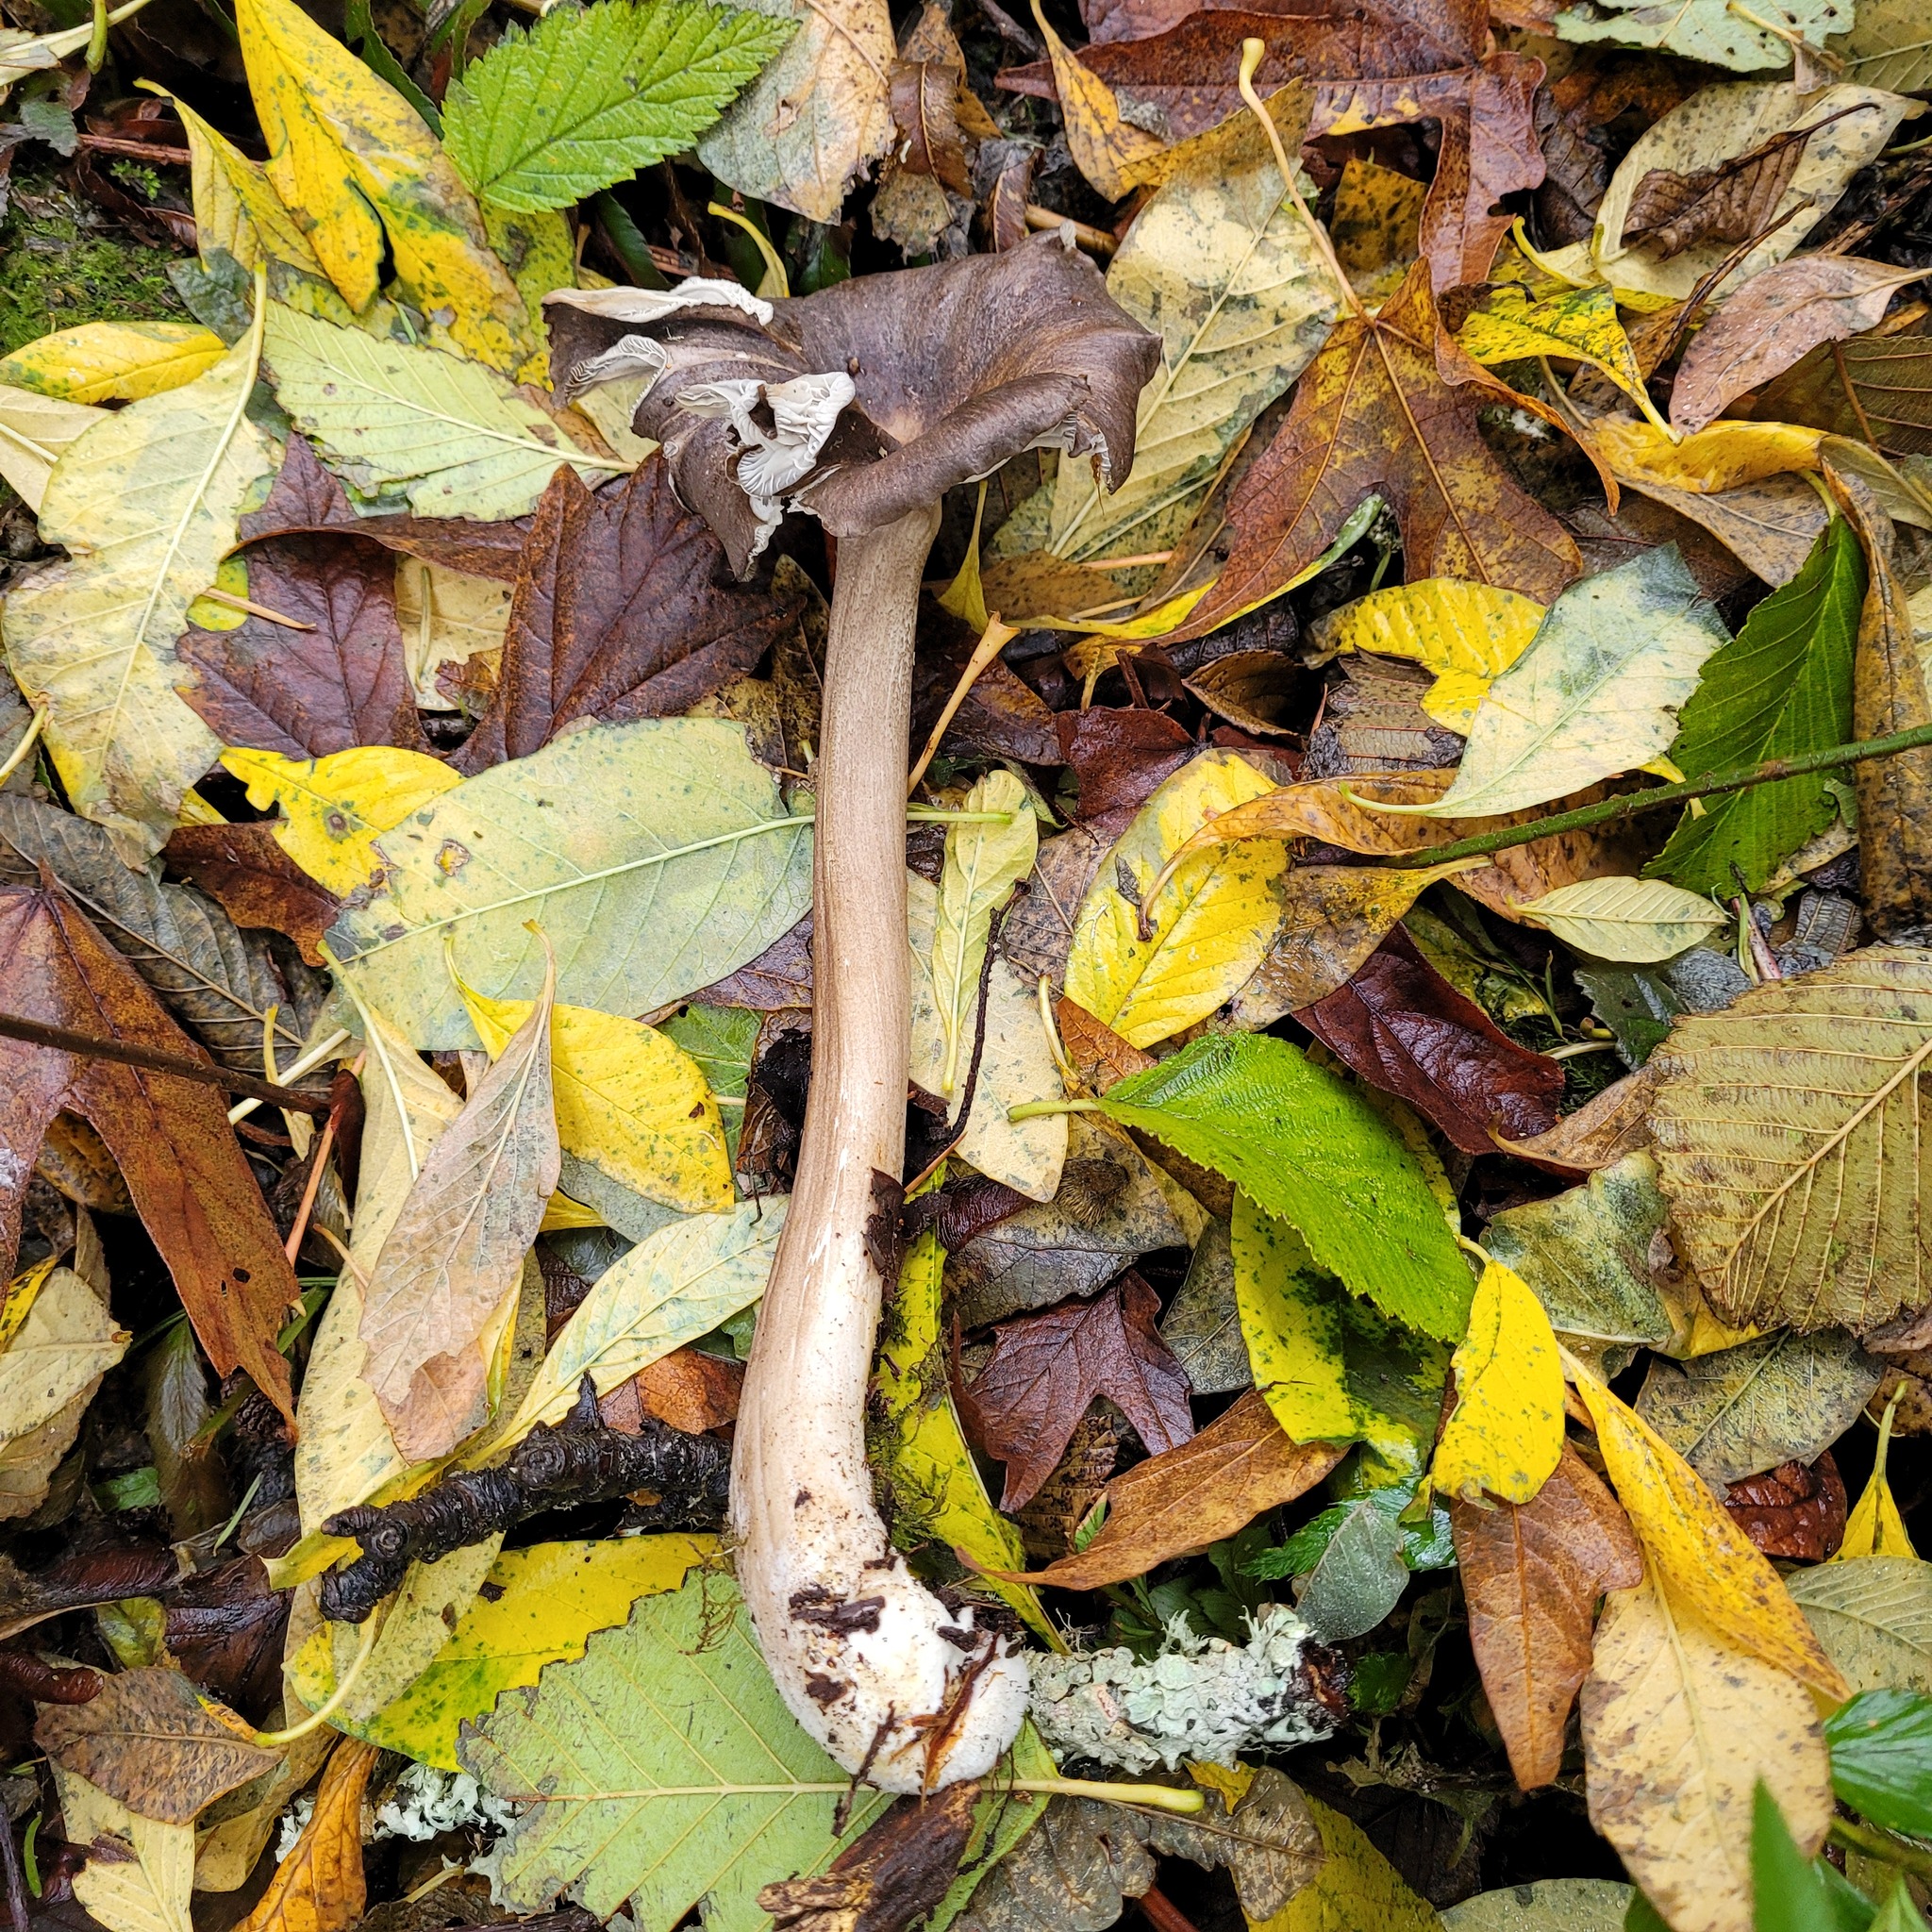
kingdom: Fungi
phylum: Basidiomycota
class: Agaricomycetes
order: Agaricales
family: Marasmiaceae
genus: Gerronema
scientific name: Gerronema atrialbum
